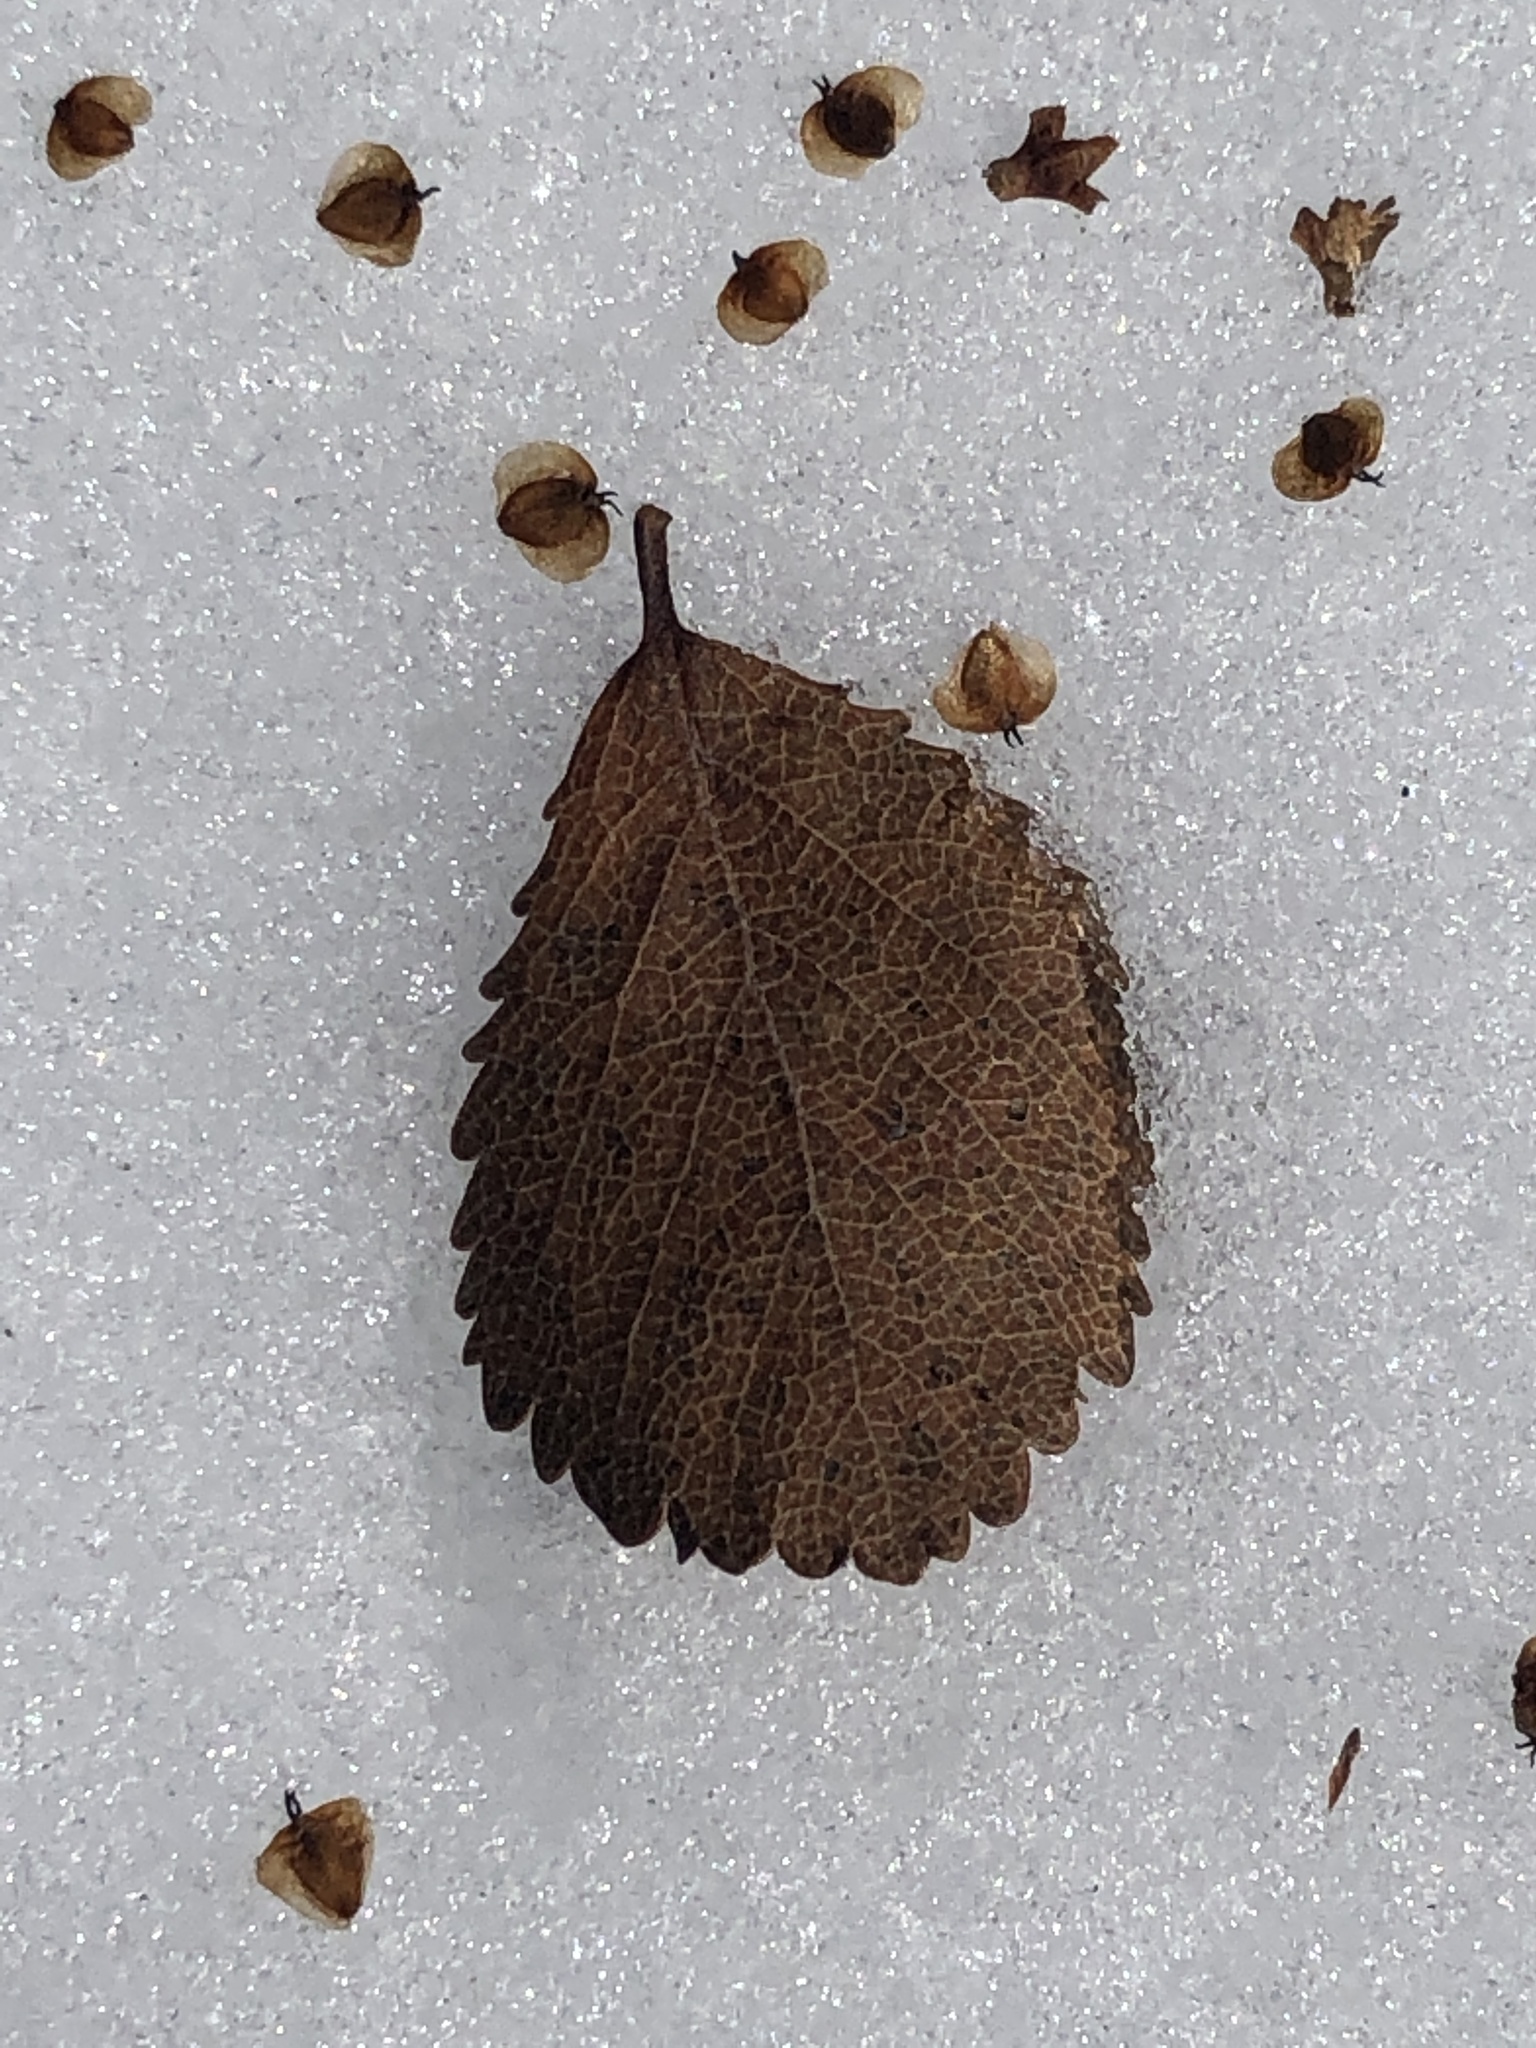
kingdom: Plantae
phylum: Tracheophyta
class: Magnoliopsida
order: Fagales
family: Betulaceae
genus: Betula
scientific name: Betula pumila
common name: Bog birch
